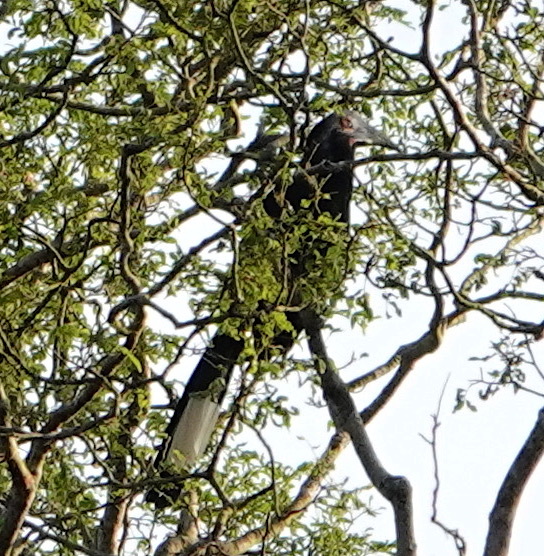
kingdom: Animalia
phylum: Chordata
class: Aves
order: Bucerotiformes
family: Bucerotidae
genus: Anthracoceros
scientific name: Anthracoceros malayanus
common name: Black hornbill
